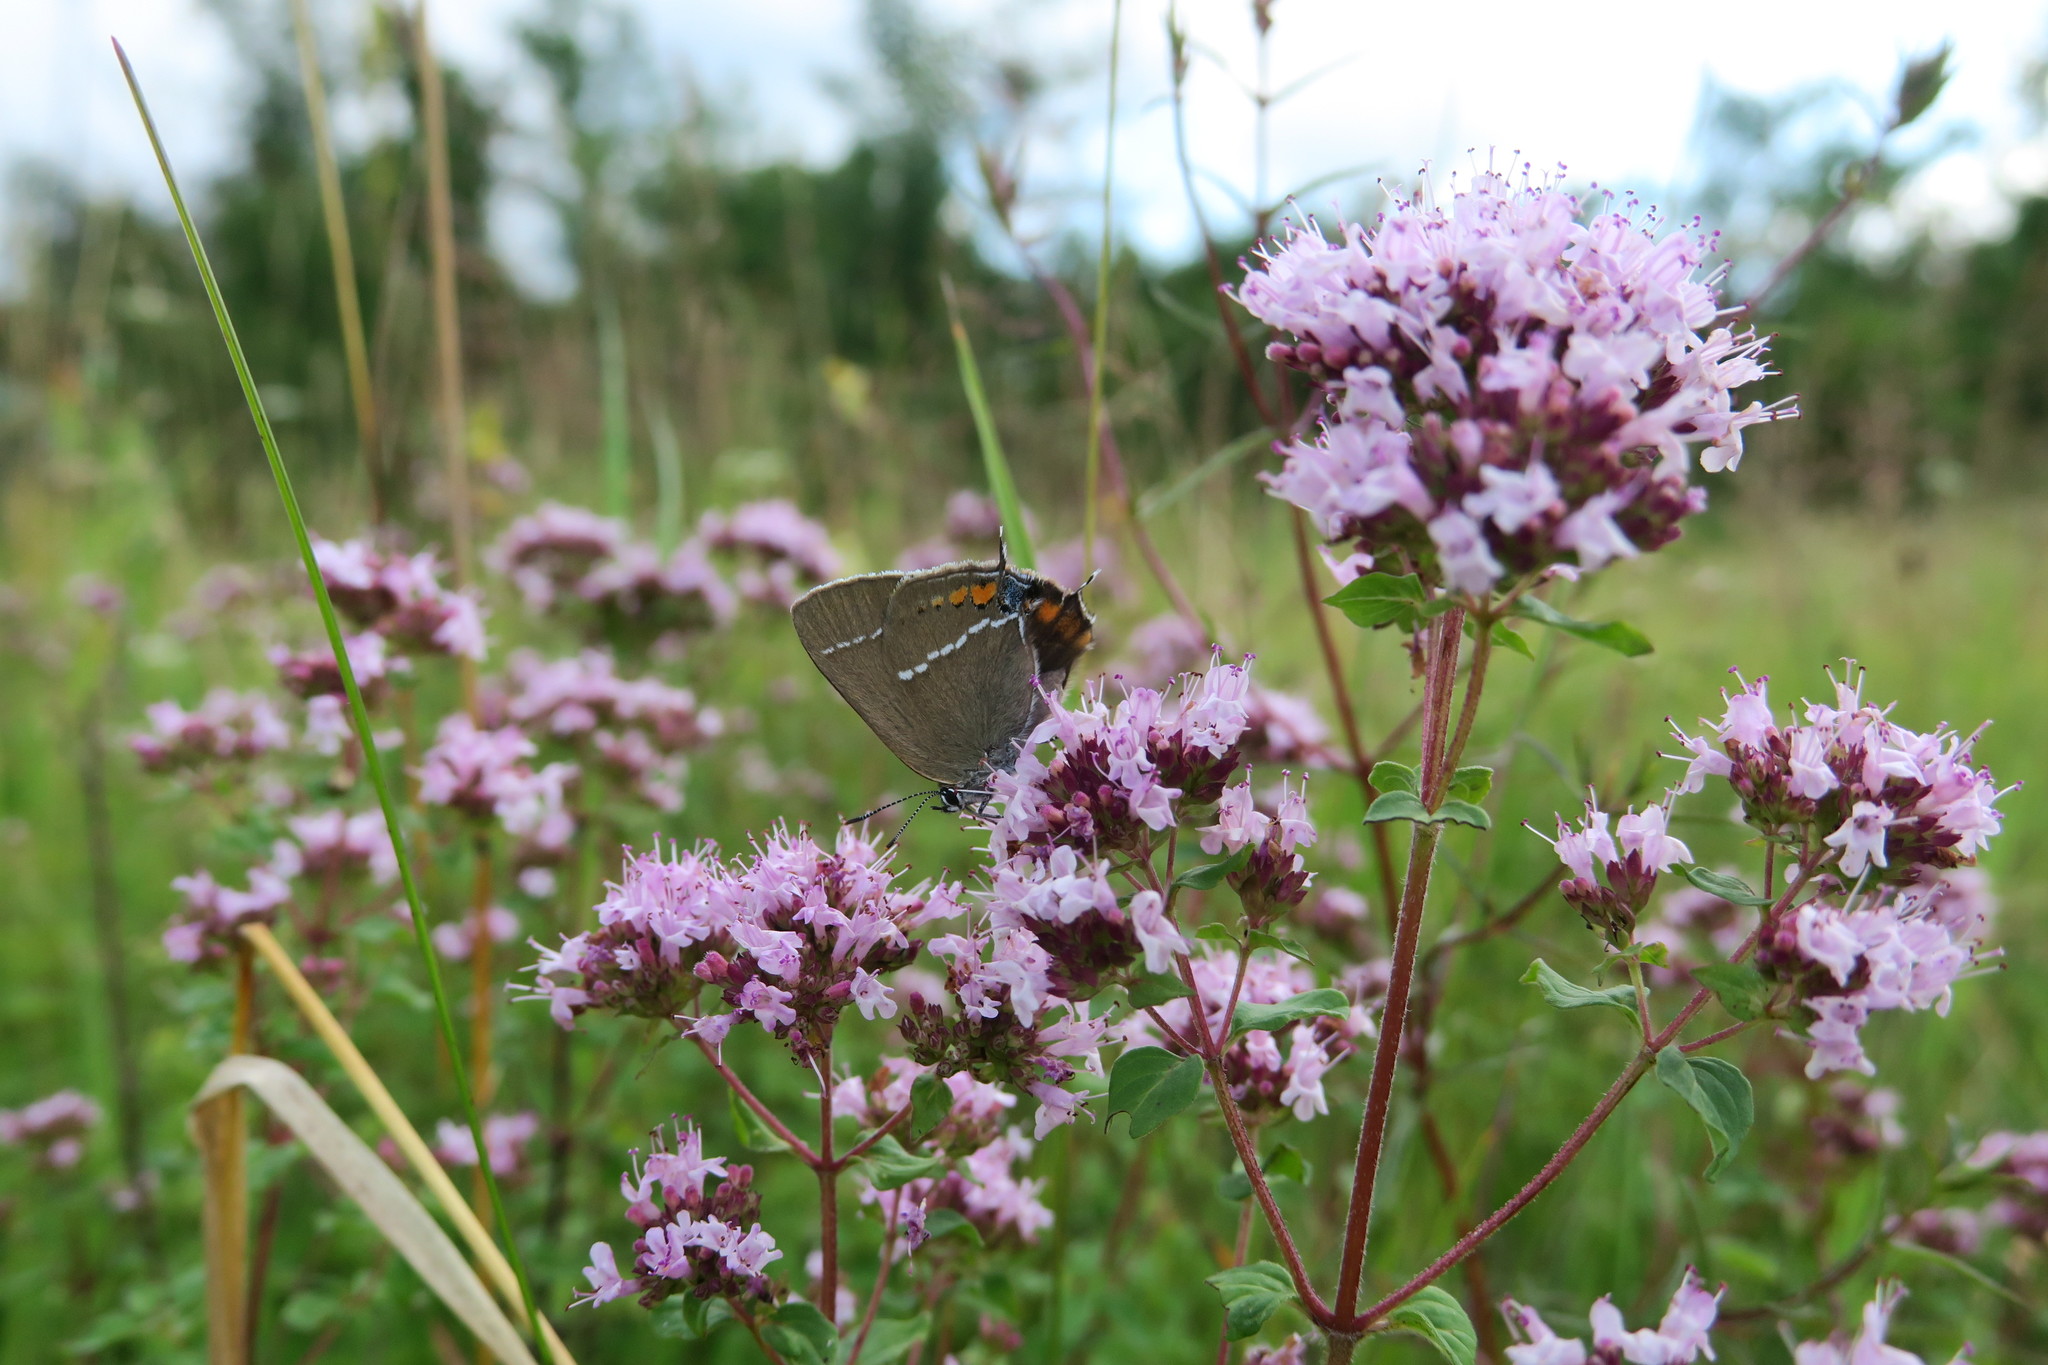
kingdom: Animalia
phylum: Arthropoda
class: Insecta
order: Lepidoptera
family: Lycaenidae
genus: Tuttiola
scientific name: Tuttiola spini
